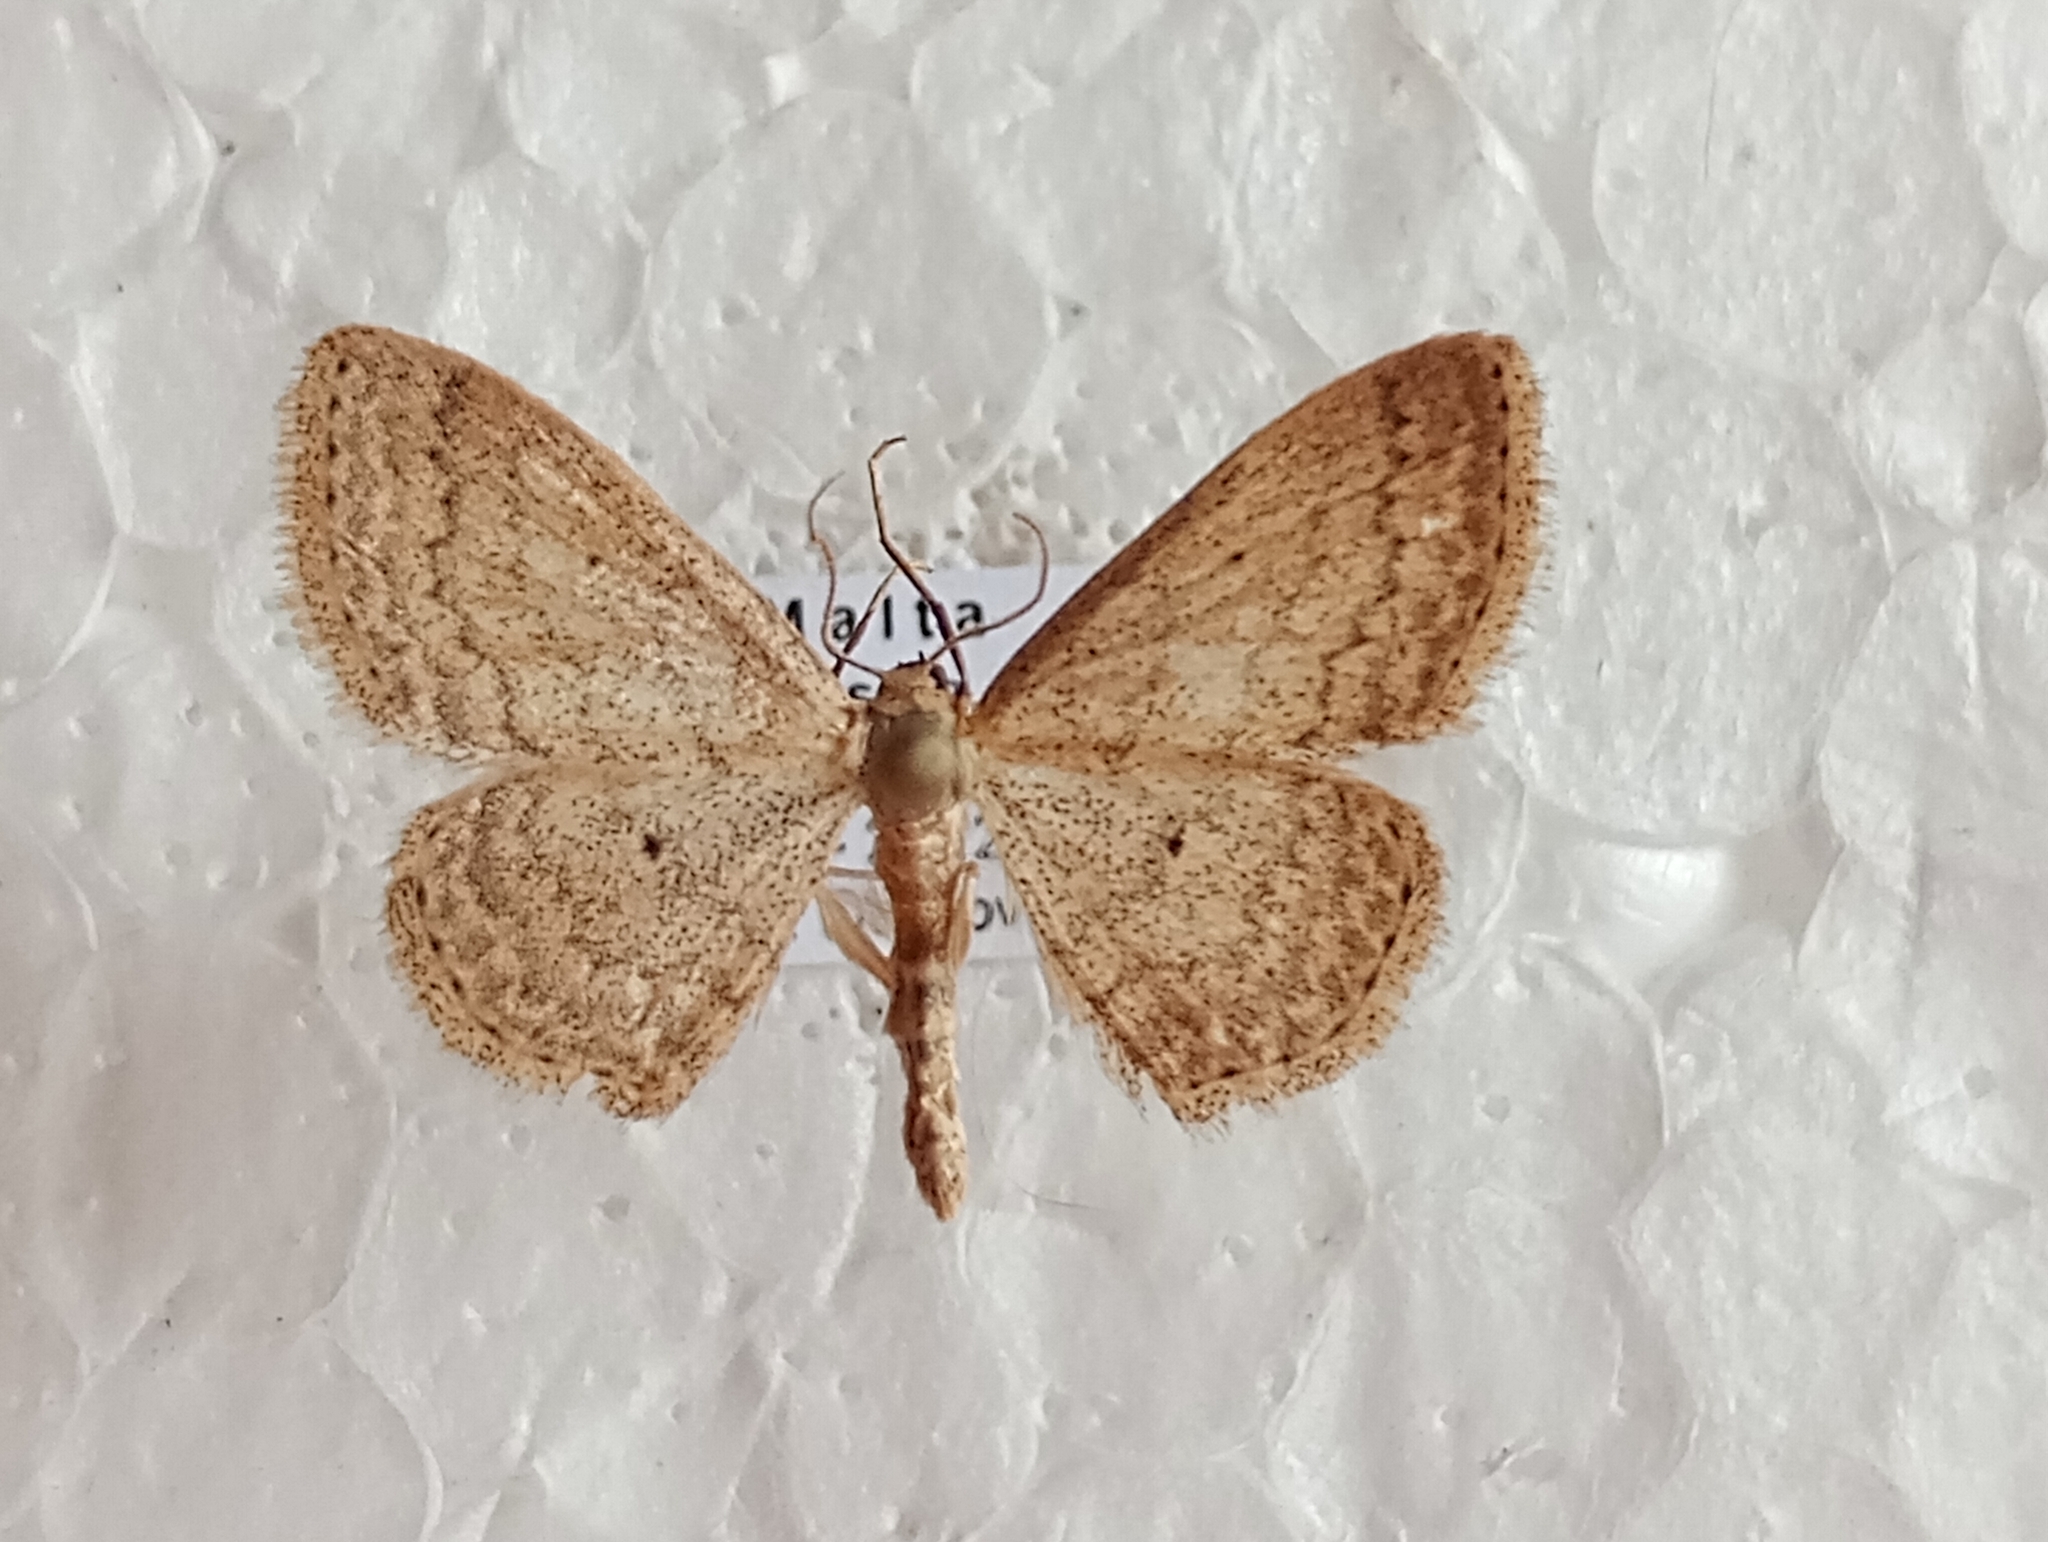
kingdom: Animalia
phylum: Arthropoda
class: Insecta
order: Lepidoptera
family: Geometridae
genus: Scopula
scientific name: Scopula minorata
